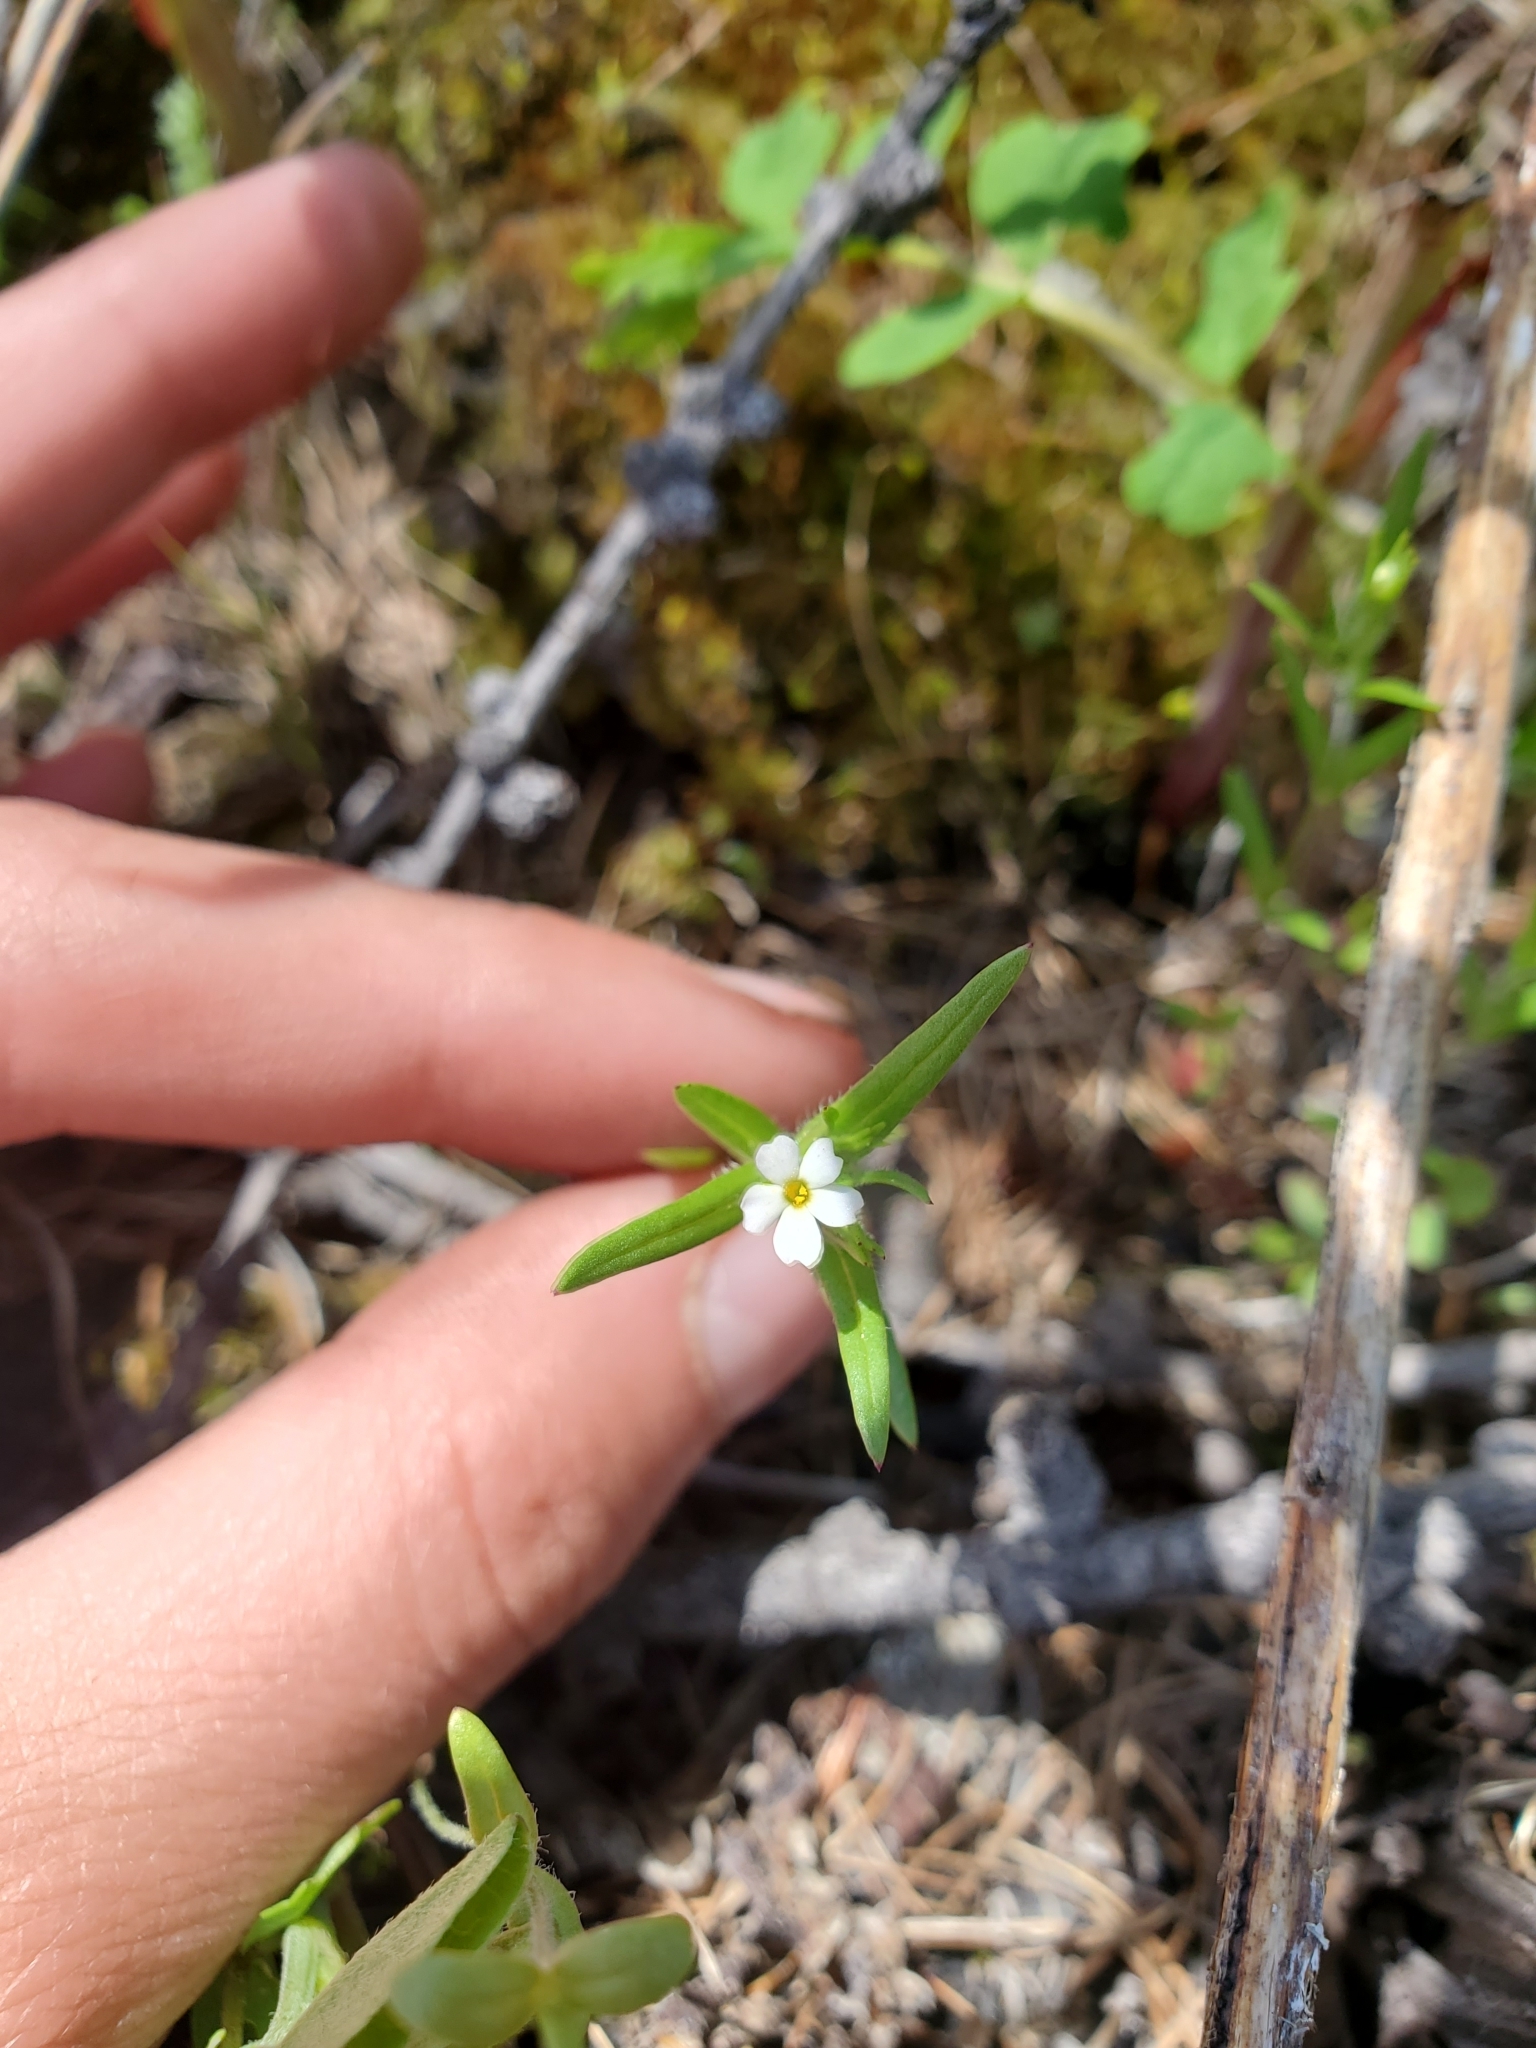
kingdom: Plantae
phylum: Tracheophyta
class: Magnoliopsida
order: Ericales
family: Polemoniaceae
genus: Phlox
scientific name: Phlox gracilis
